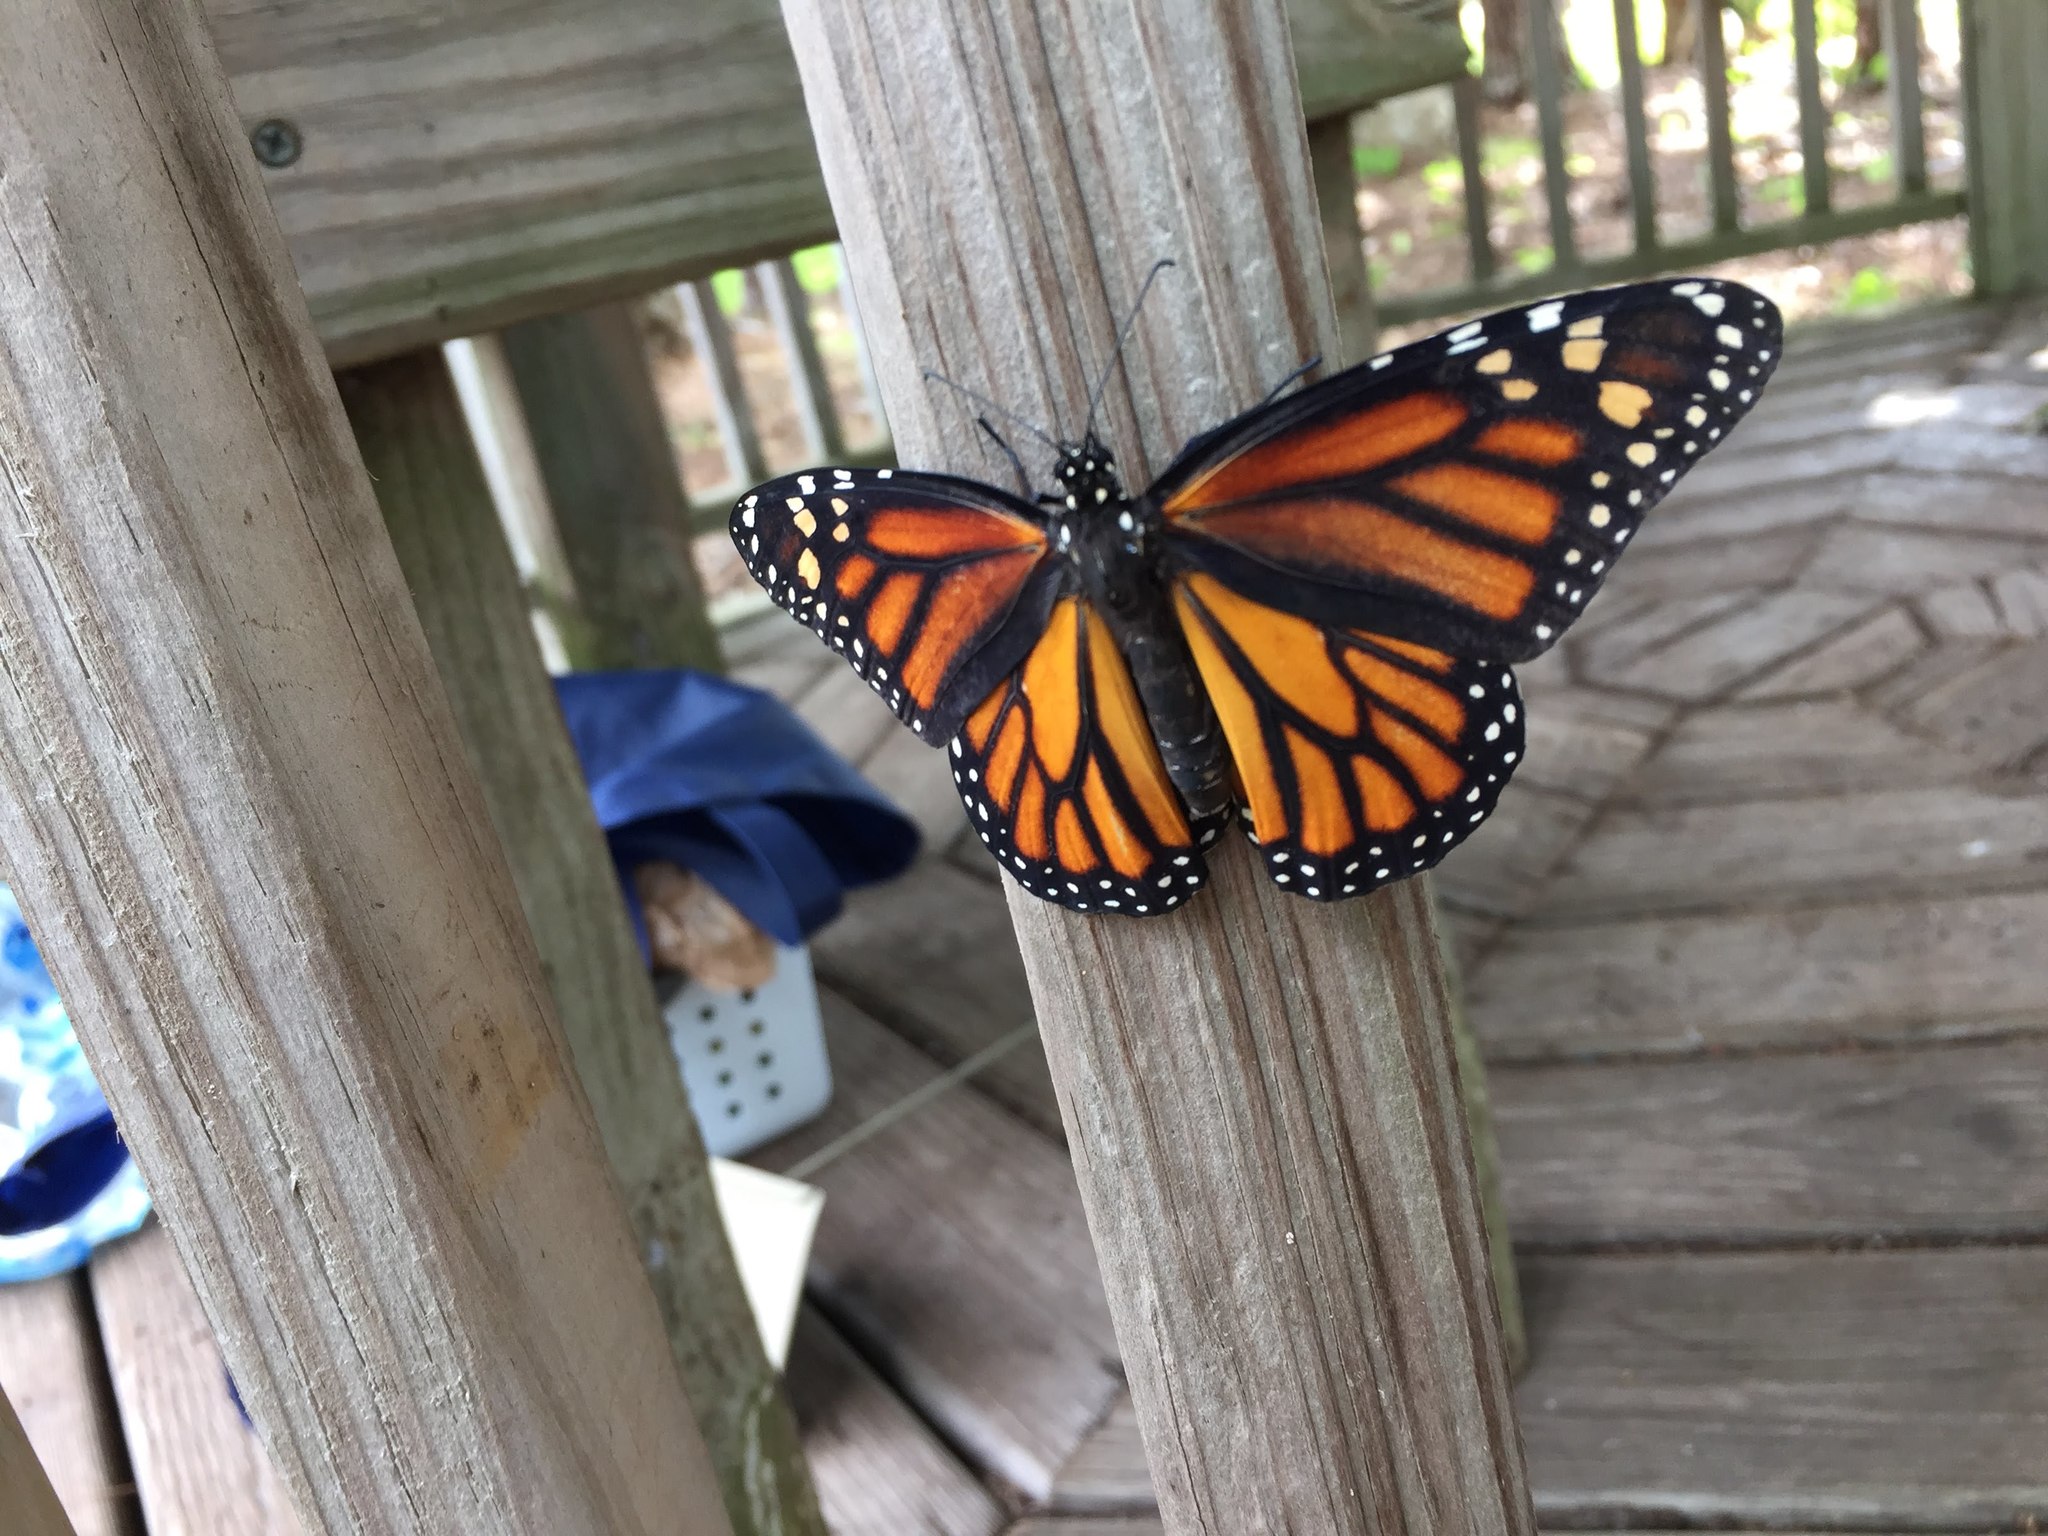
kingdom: Animalia
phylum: Arthropoda
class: Insecta
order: Lepidoptera
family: Nymphalidae
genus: Danaus
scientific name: Danaus plexippus
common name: Monarch
